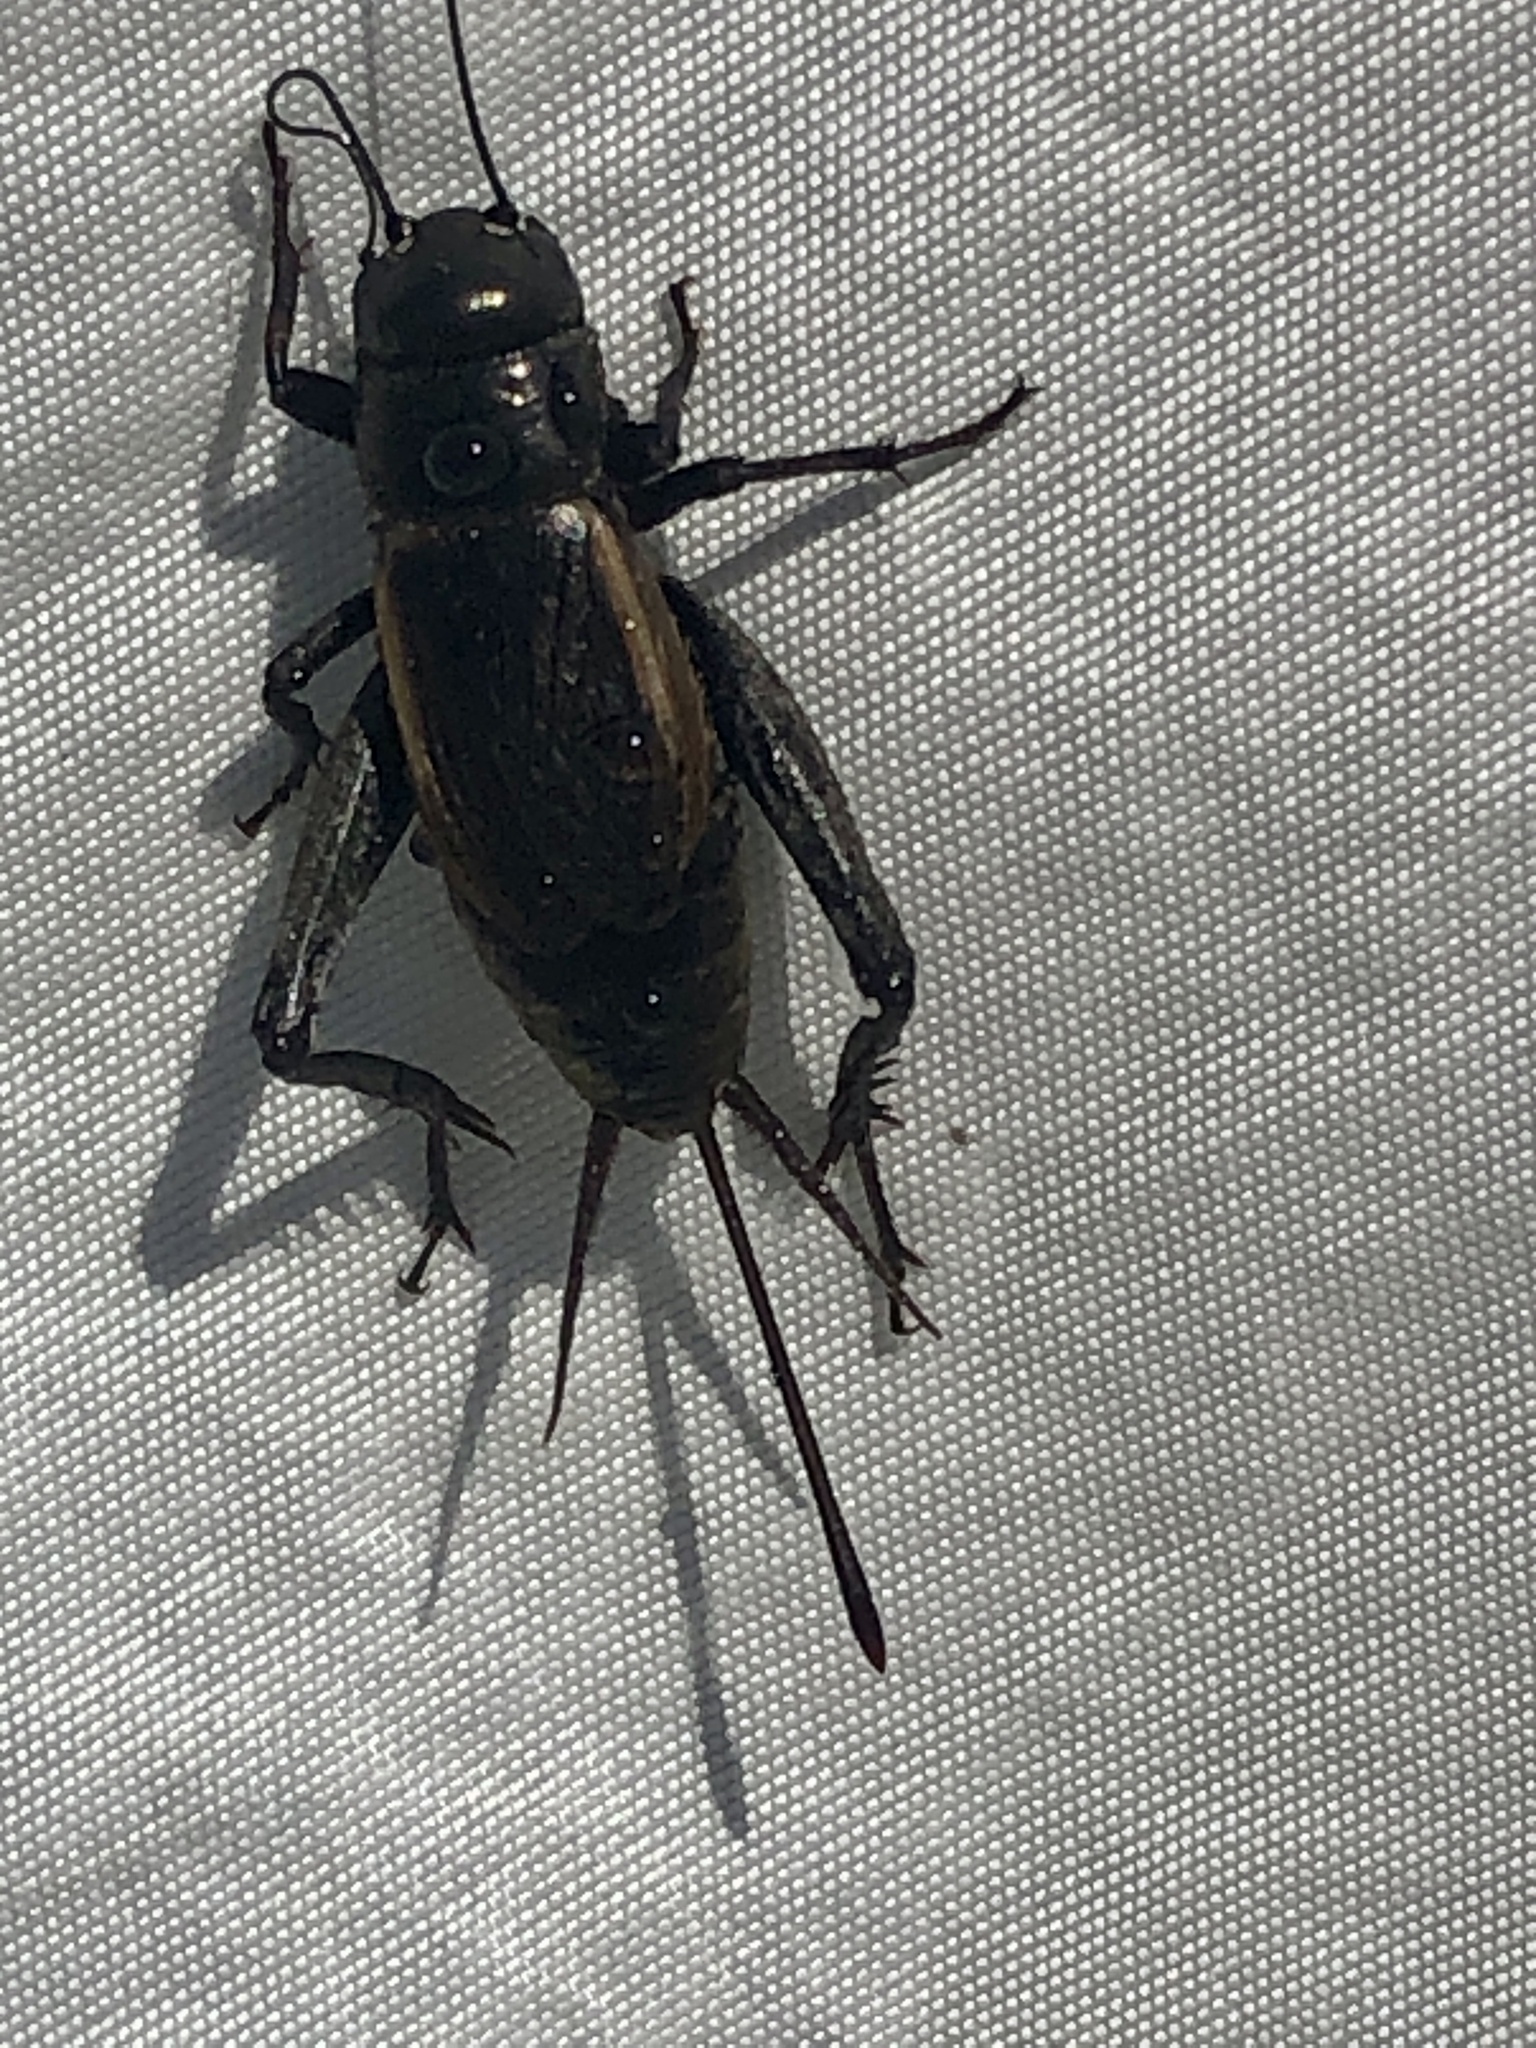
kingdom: Animalia
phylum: Arthropoda
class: Insecta
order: Orthoptera
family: Gryllidae
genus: Gryllus
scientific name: Gryllus pennsylvanicus
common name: Fall field cricket
